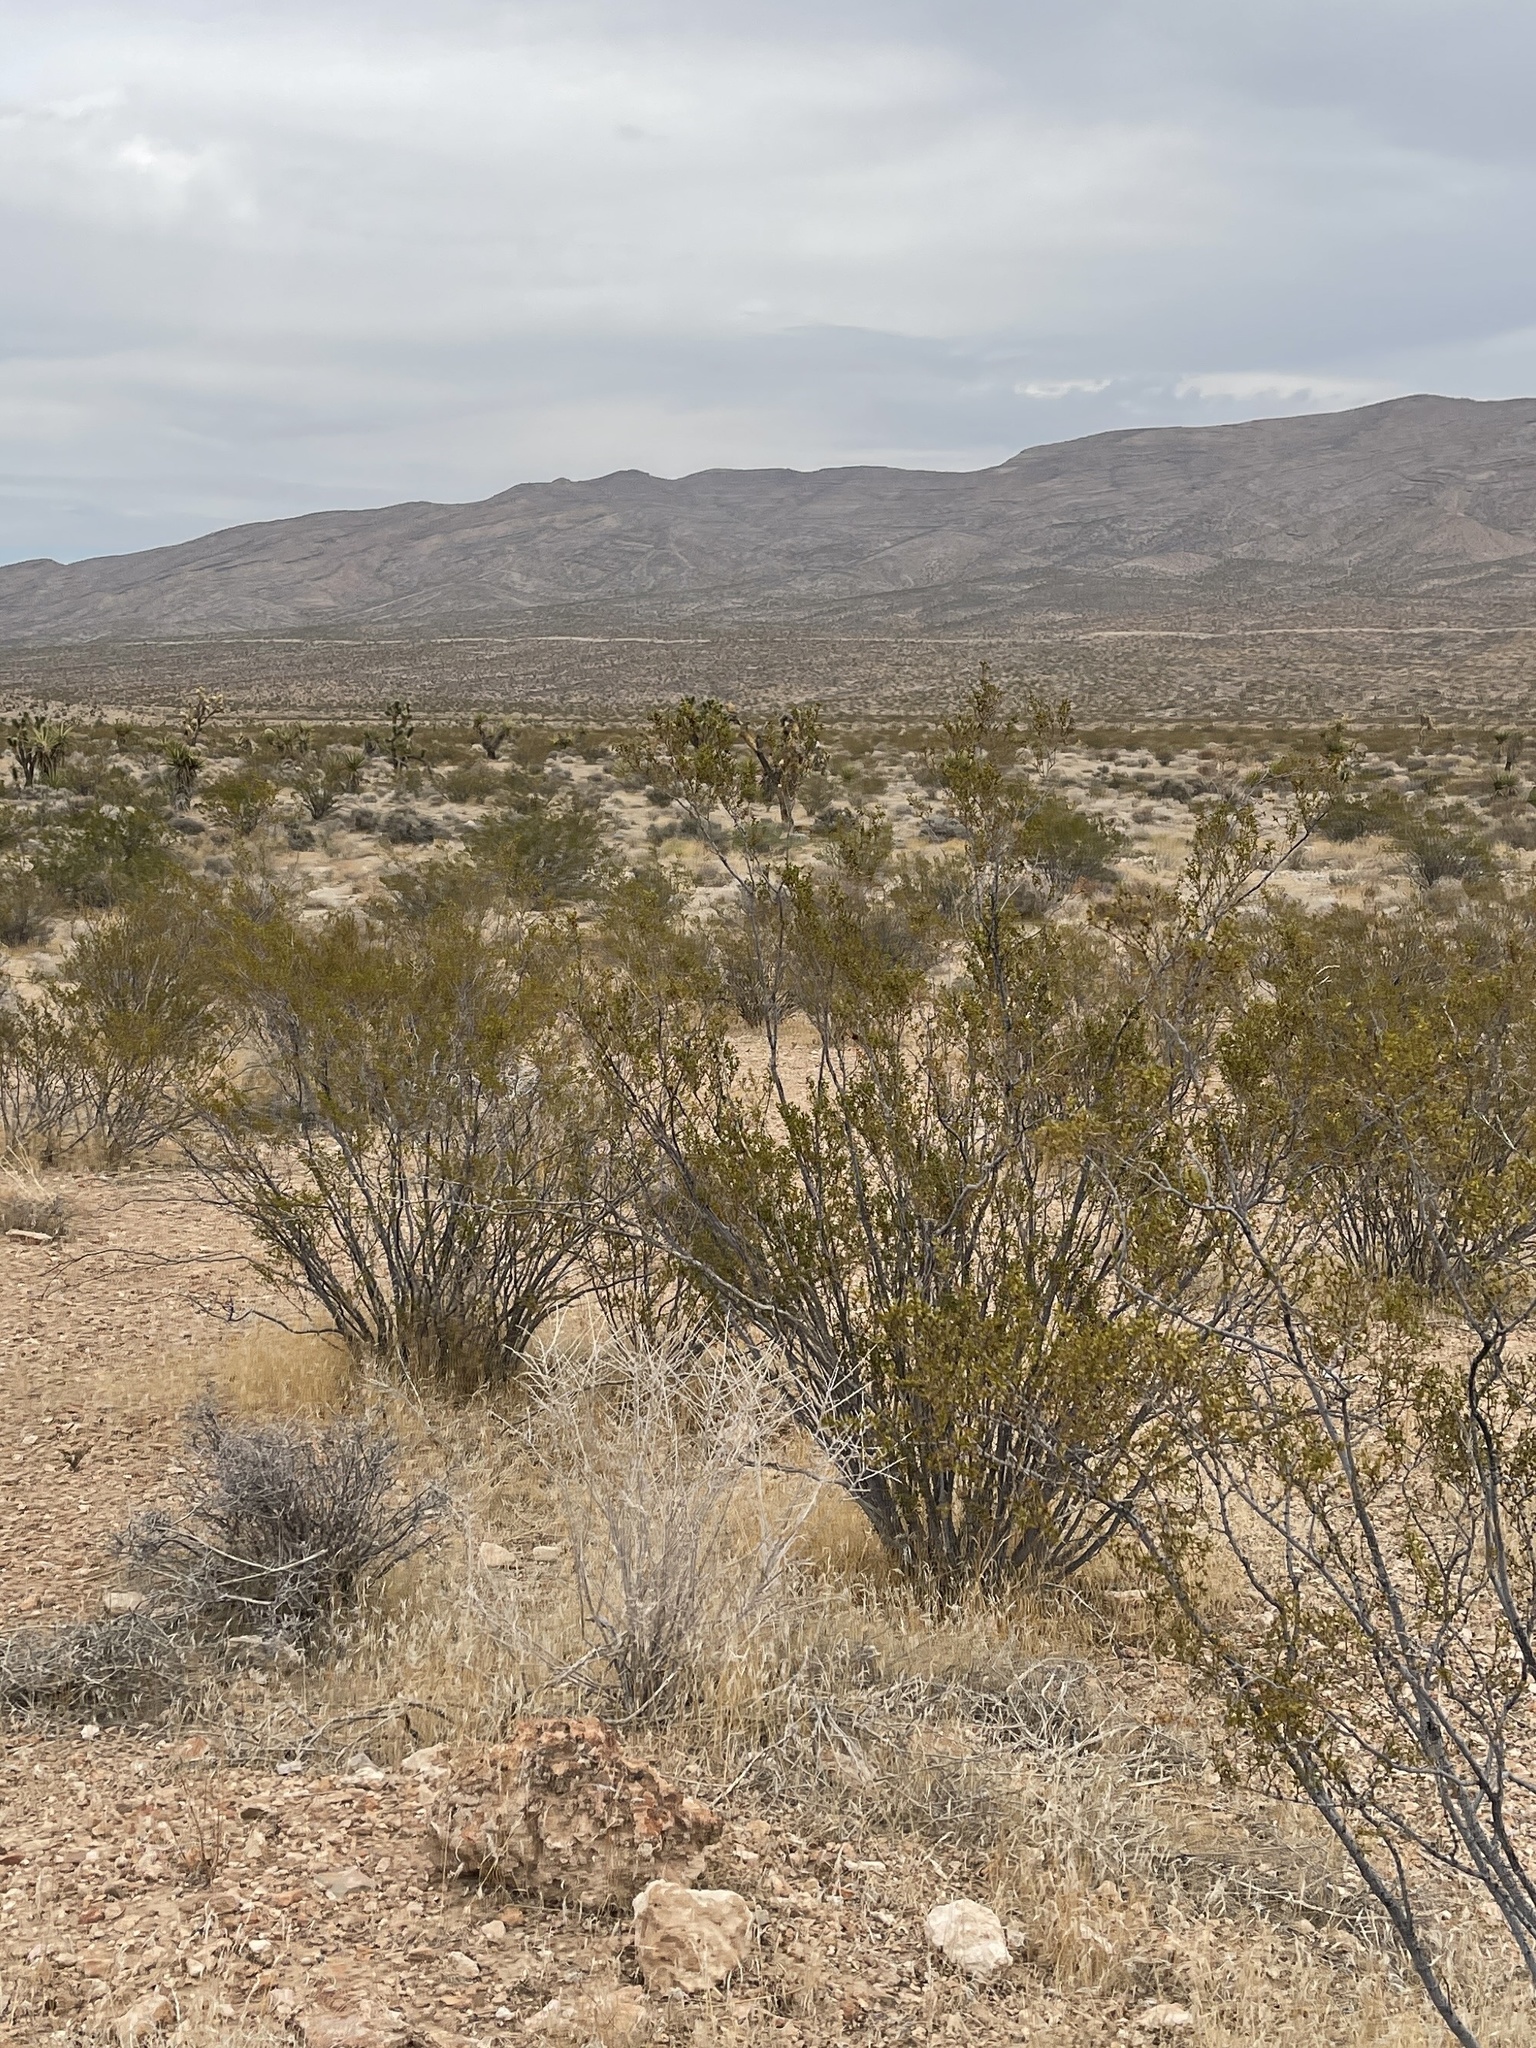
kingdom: Plantae
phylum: Tracheophyta
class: Magnoliopsida
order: Zygophyllales
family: Zygophyllaceae
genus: Larrea
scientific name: Larrea tridentata
